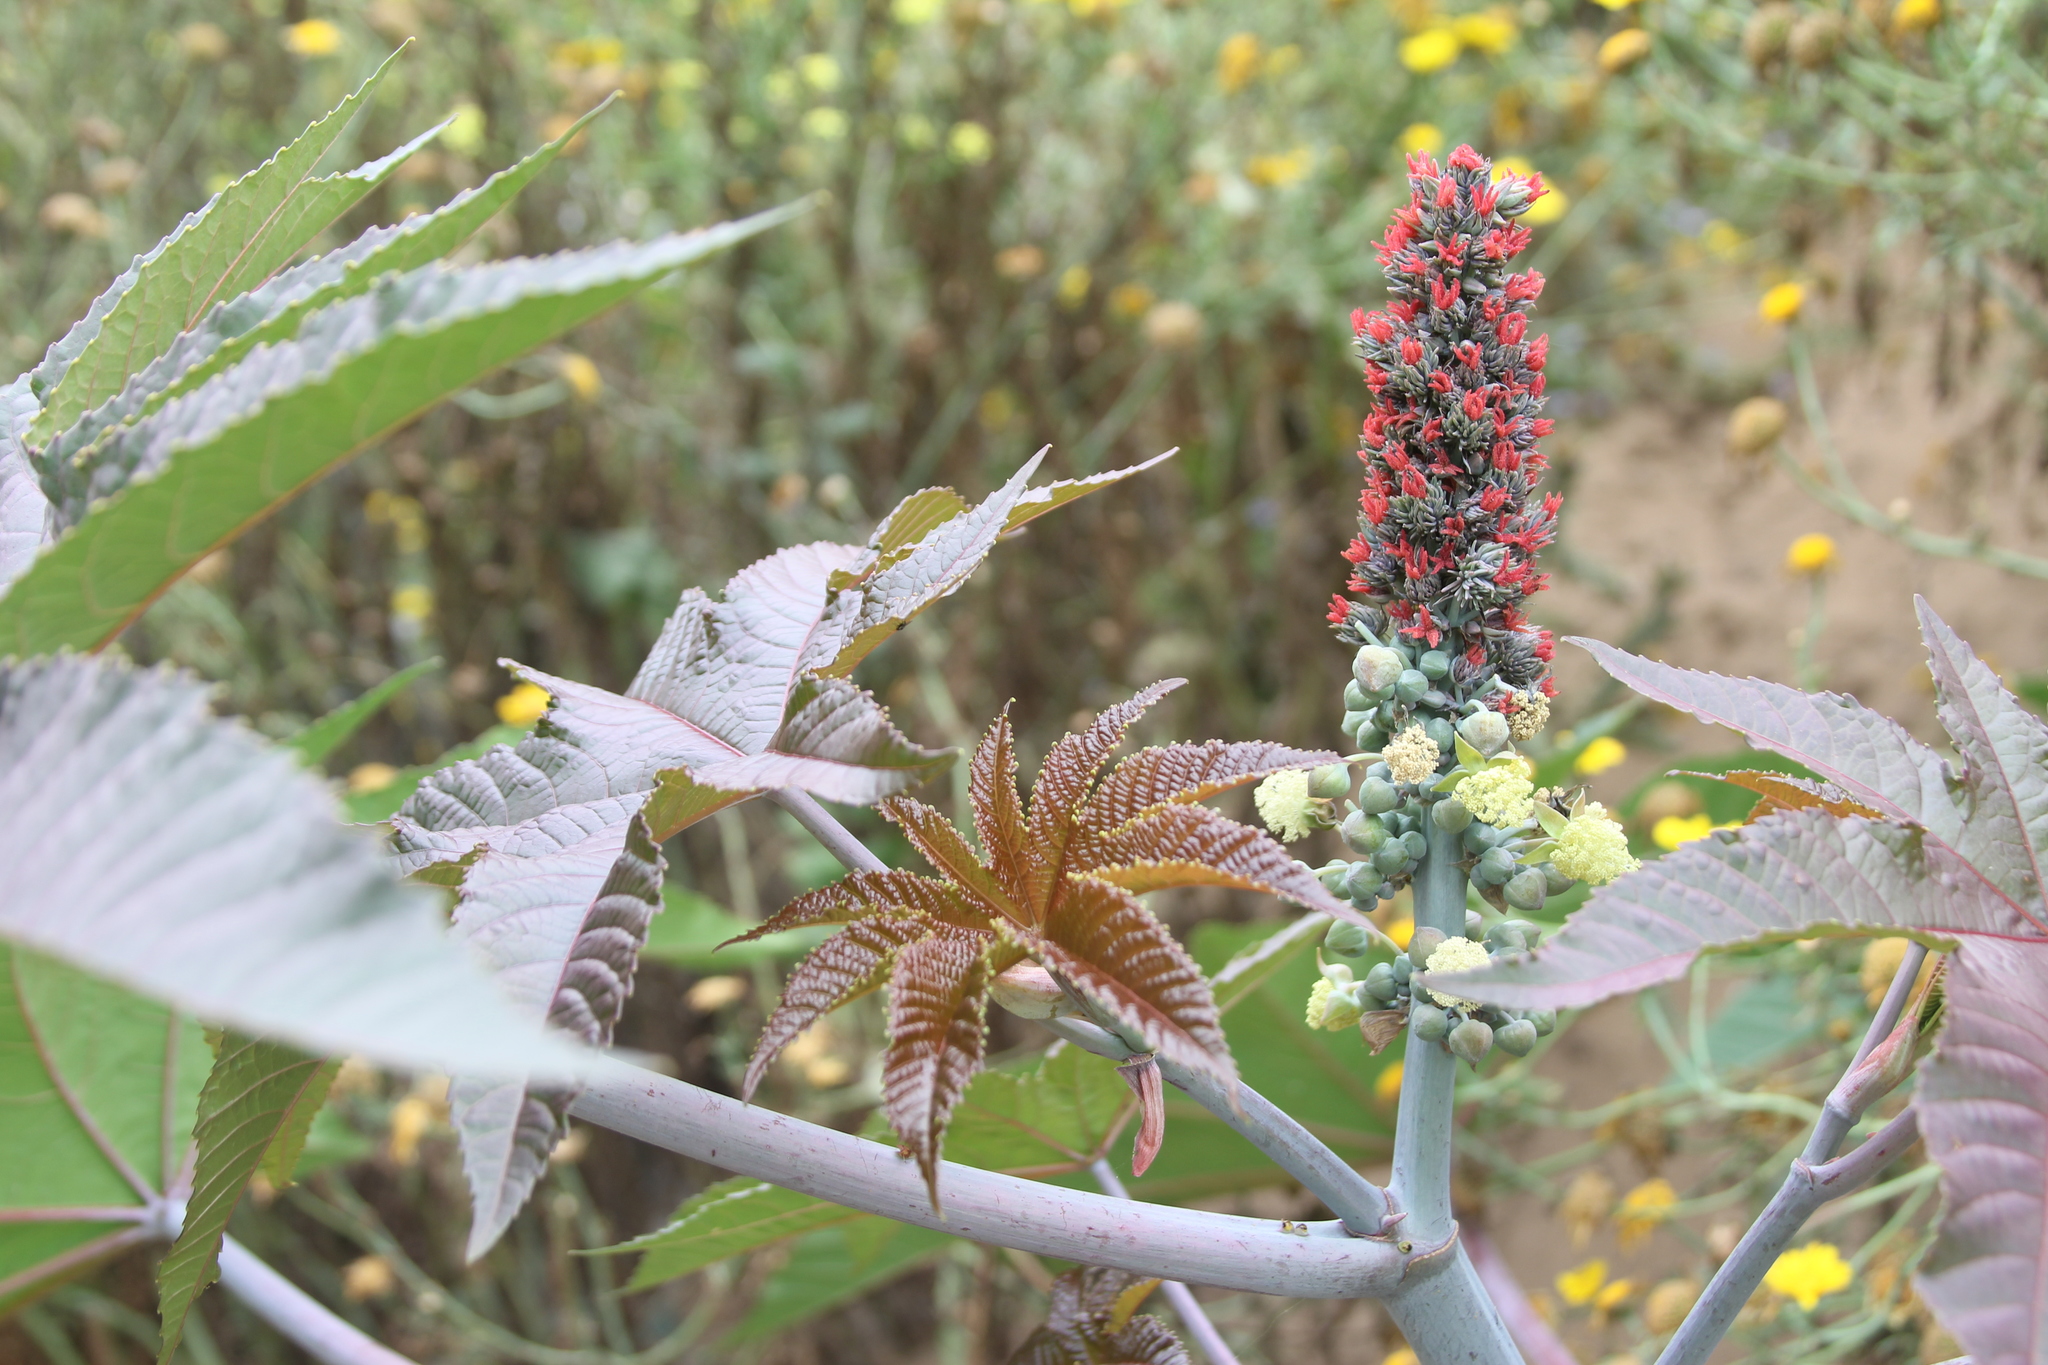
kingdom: Plantae
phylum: Tracheophyta
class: Magnoliopsida
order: Malpighiales
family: Euphorbiaceae
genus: Ricinus
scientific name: Ricinus communis
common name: Castor-oil-plant
